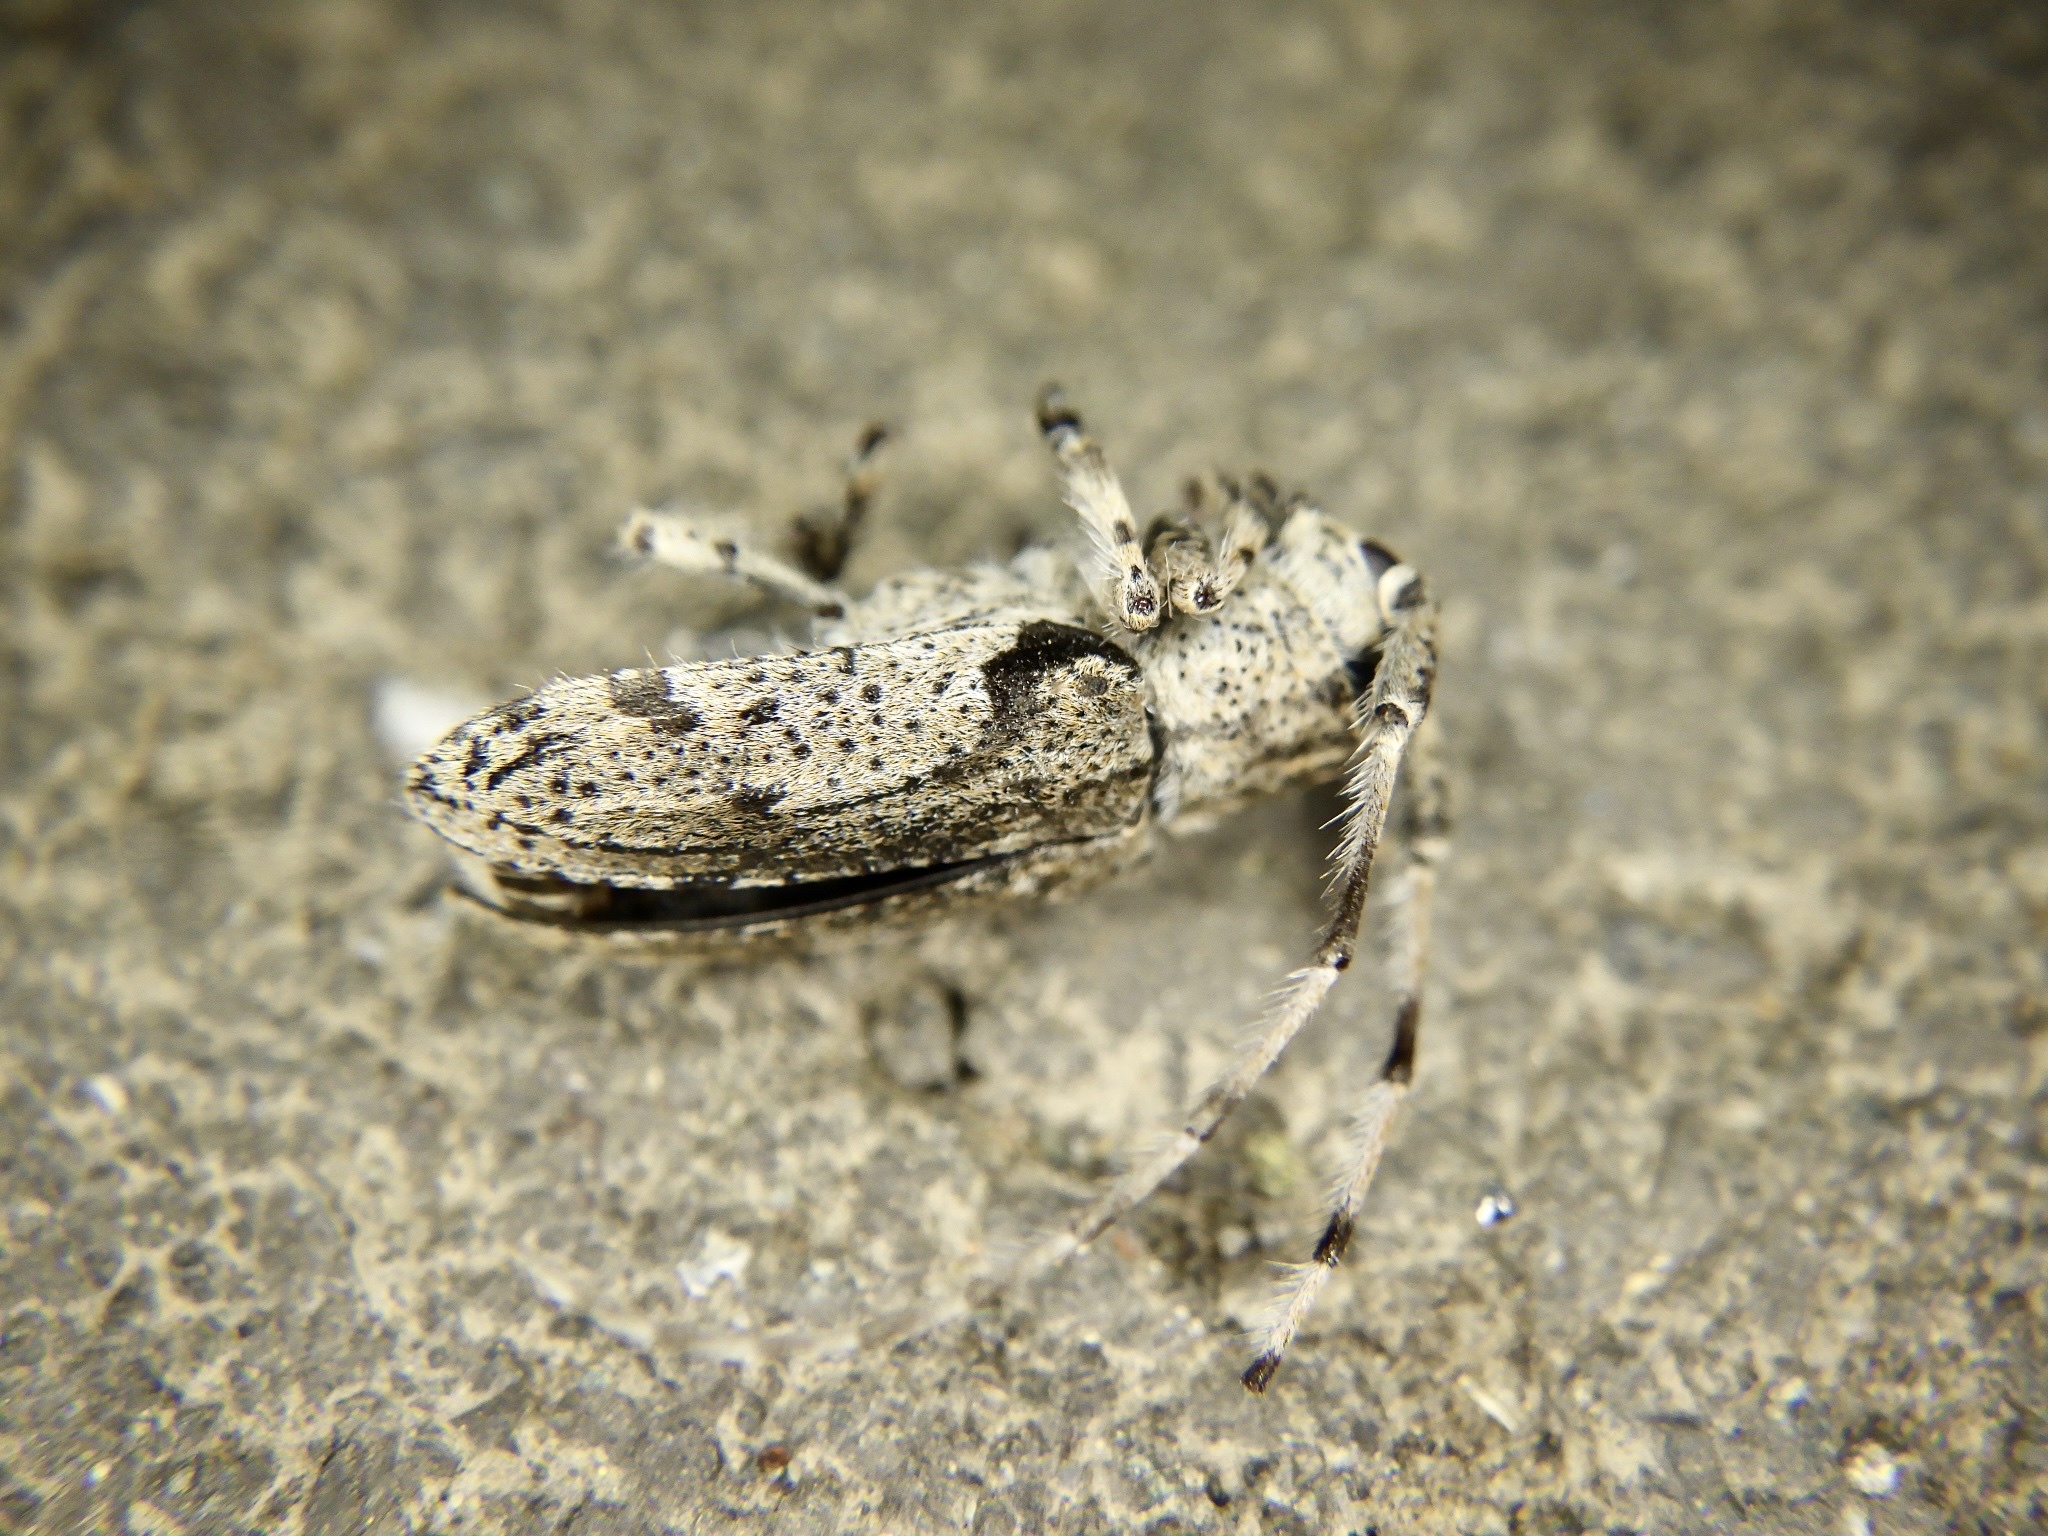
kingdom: Animalia
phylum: Arthropoda
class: Insecta
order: Coleoptera
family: Cerambycidae
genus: Mesosa
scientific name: Mesosa senilis
